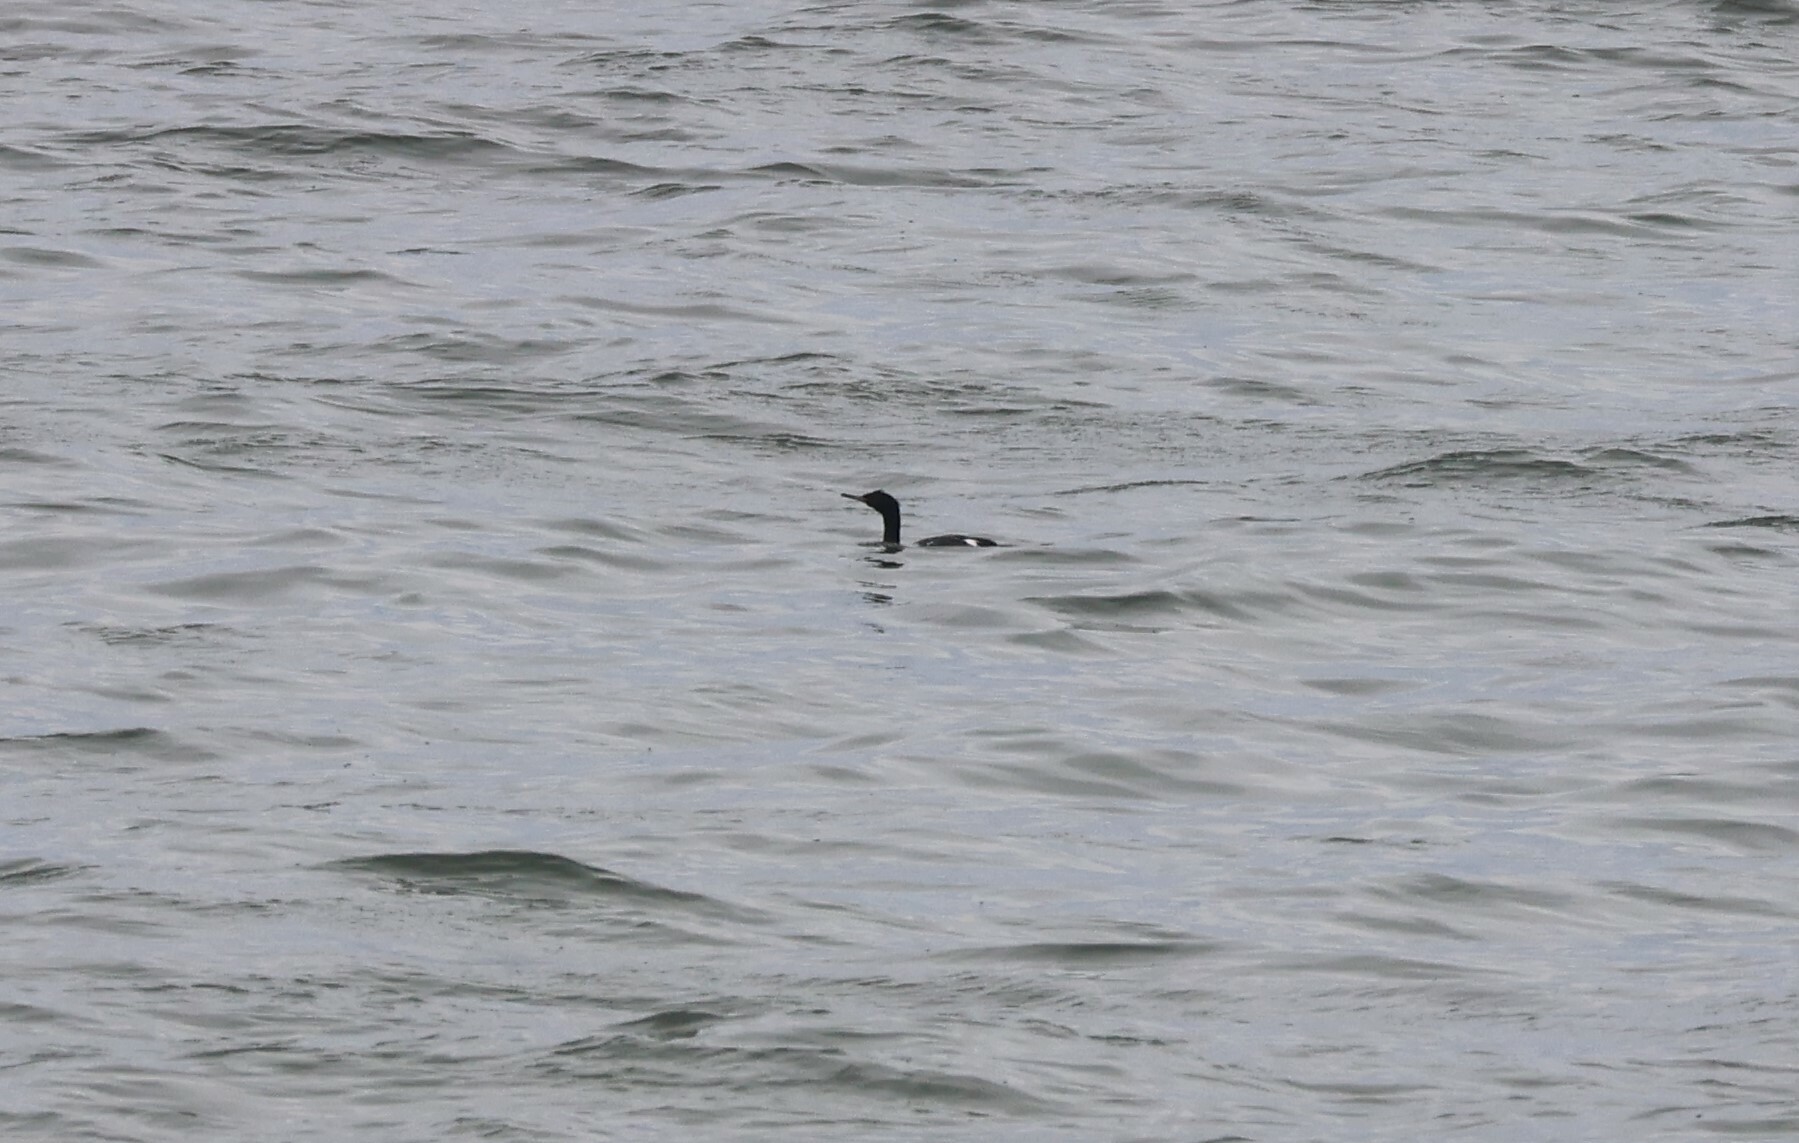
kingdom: Animalia
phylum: Chordata
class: Aves
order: Suliformes
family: Phalacrocoracidae
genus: Phalacrocorax
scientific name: Phalacrocorax pelagicus
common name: Pelagic cormorant
